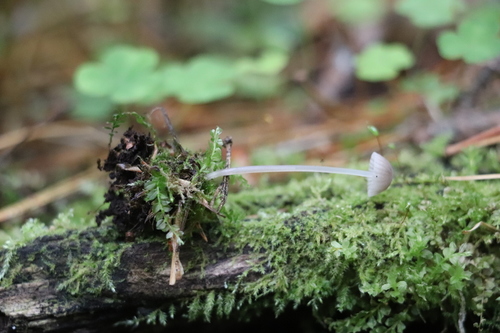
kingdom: Fungi
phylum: Basidiomycota
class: Agaricomycetes
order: Agaricales
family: Mycenaceae
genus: Mycena
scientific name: Mycena
